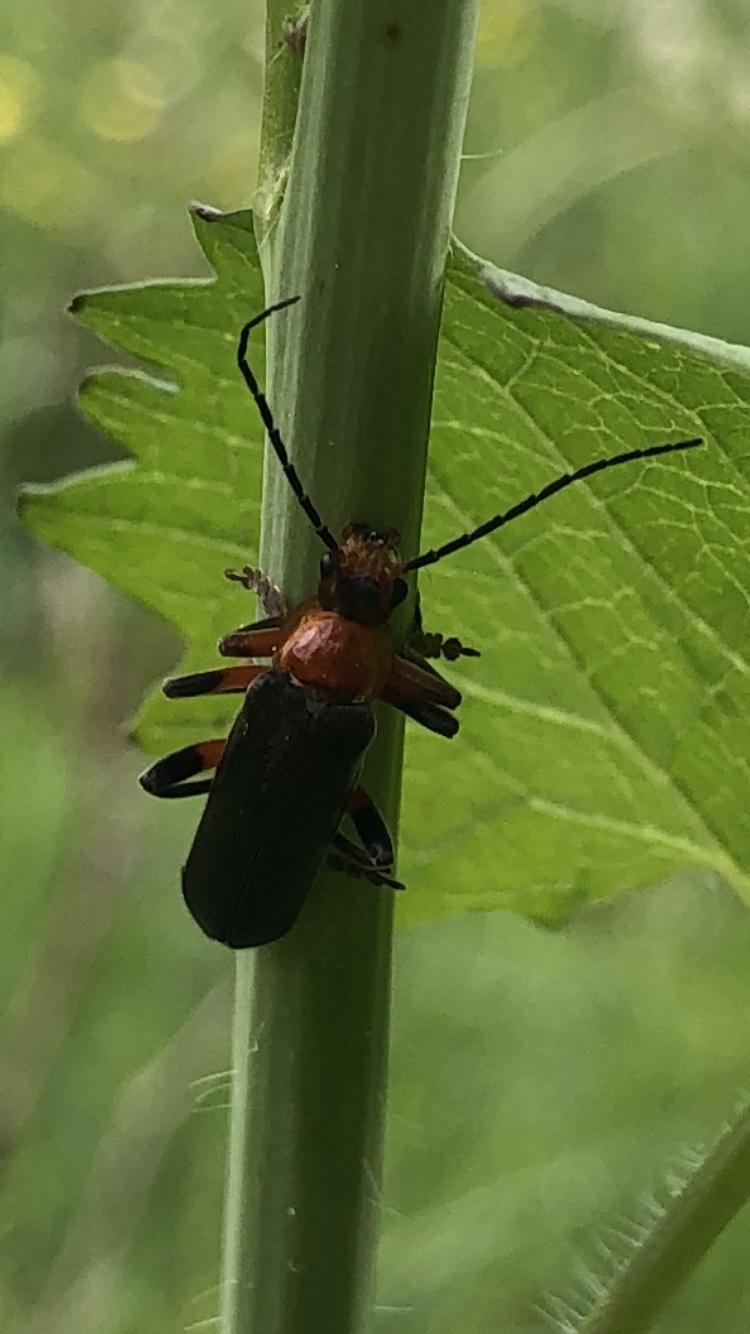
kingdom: Animalia
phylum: Arthropoda
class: Insecta
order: Coleoptera
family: Cantharidae
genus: Cantharis
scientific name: Cantharis livida
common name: Livid soldier beetle
